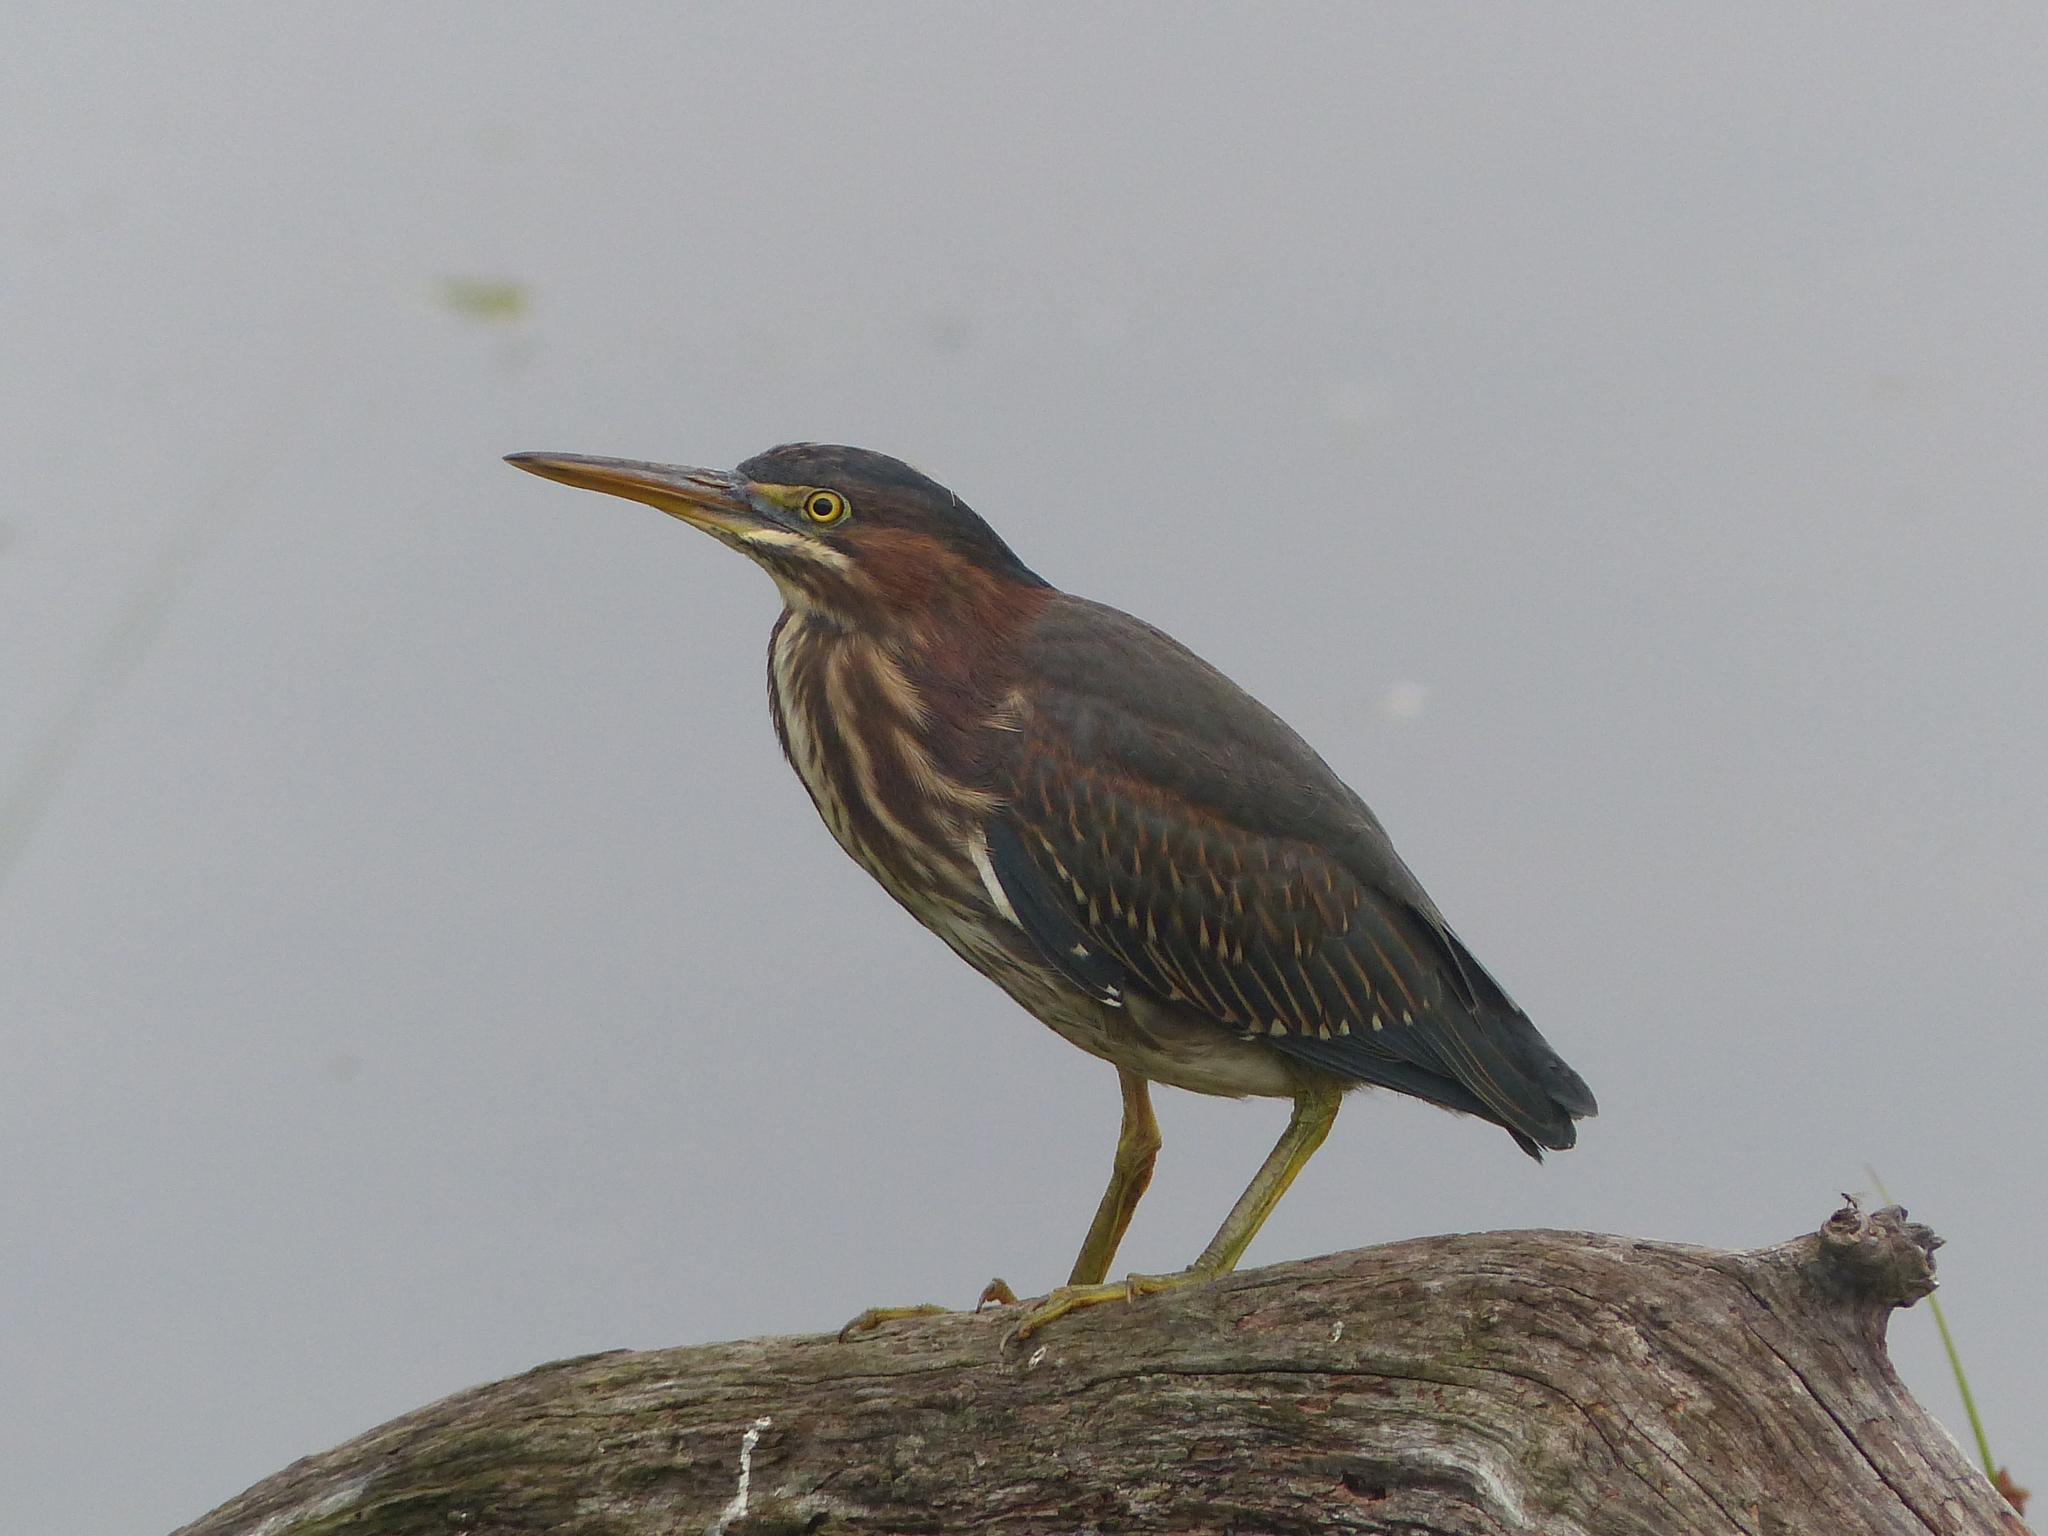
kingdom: Animalia
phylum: Chordata
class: Aves
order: Pelecaniformes
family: Ardeidae
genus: Butorides
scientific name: Butorides virescens
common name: Green heron
